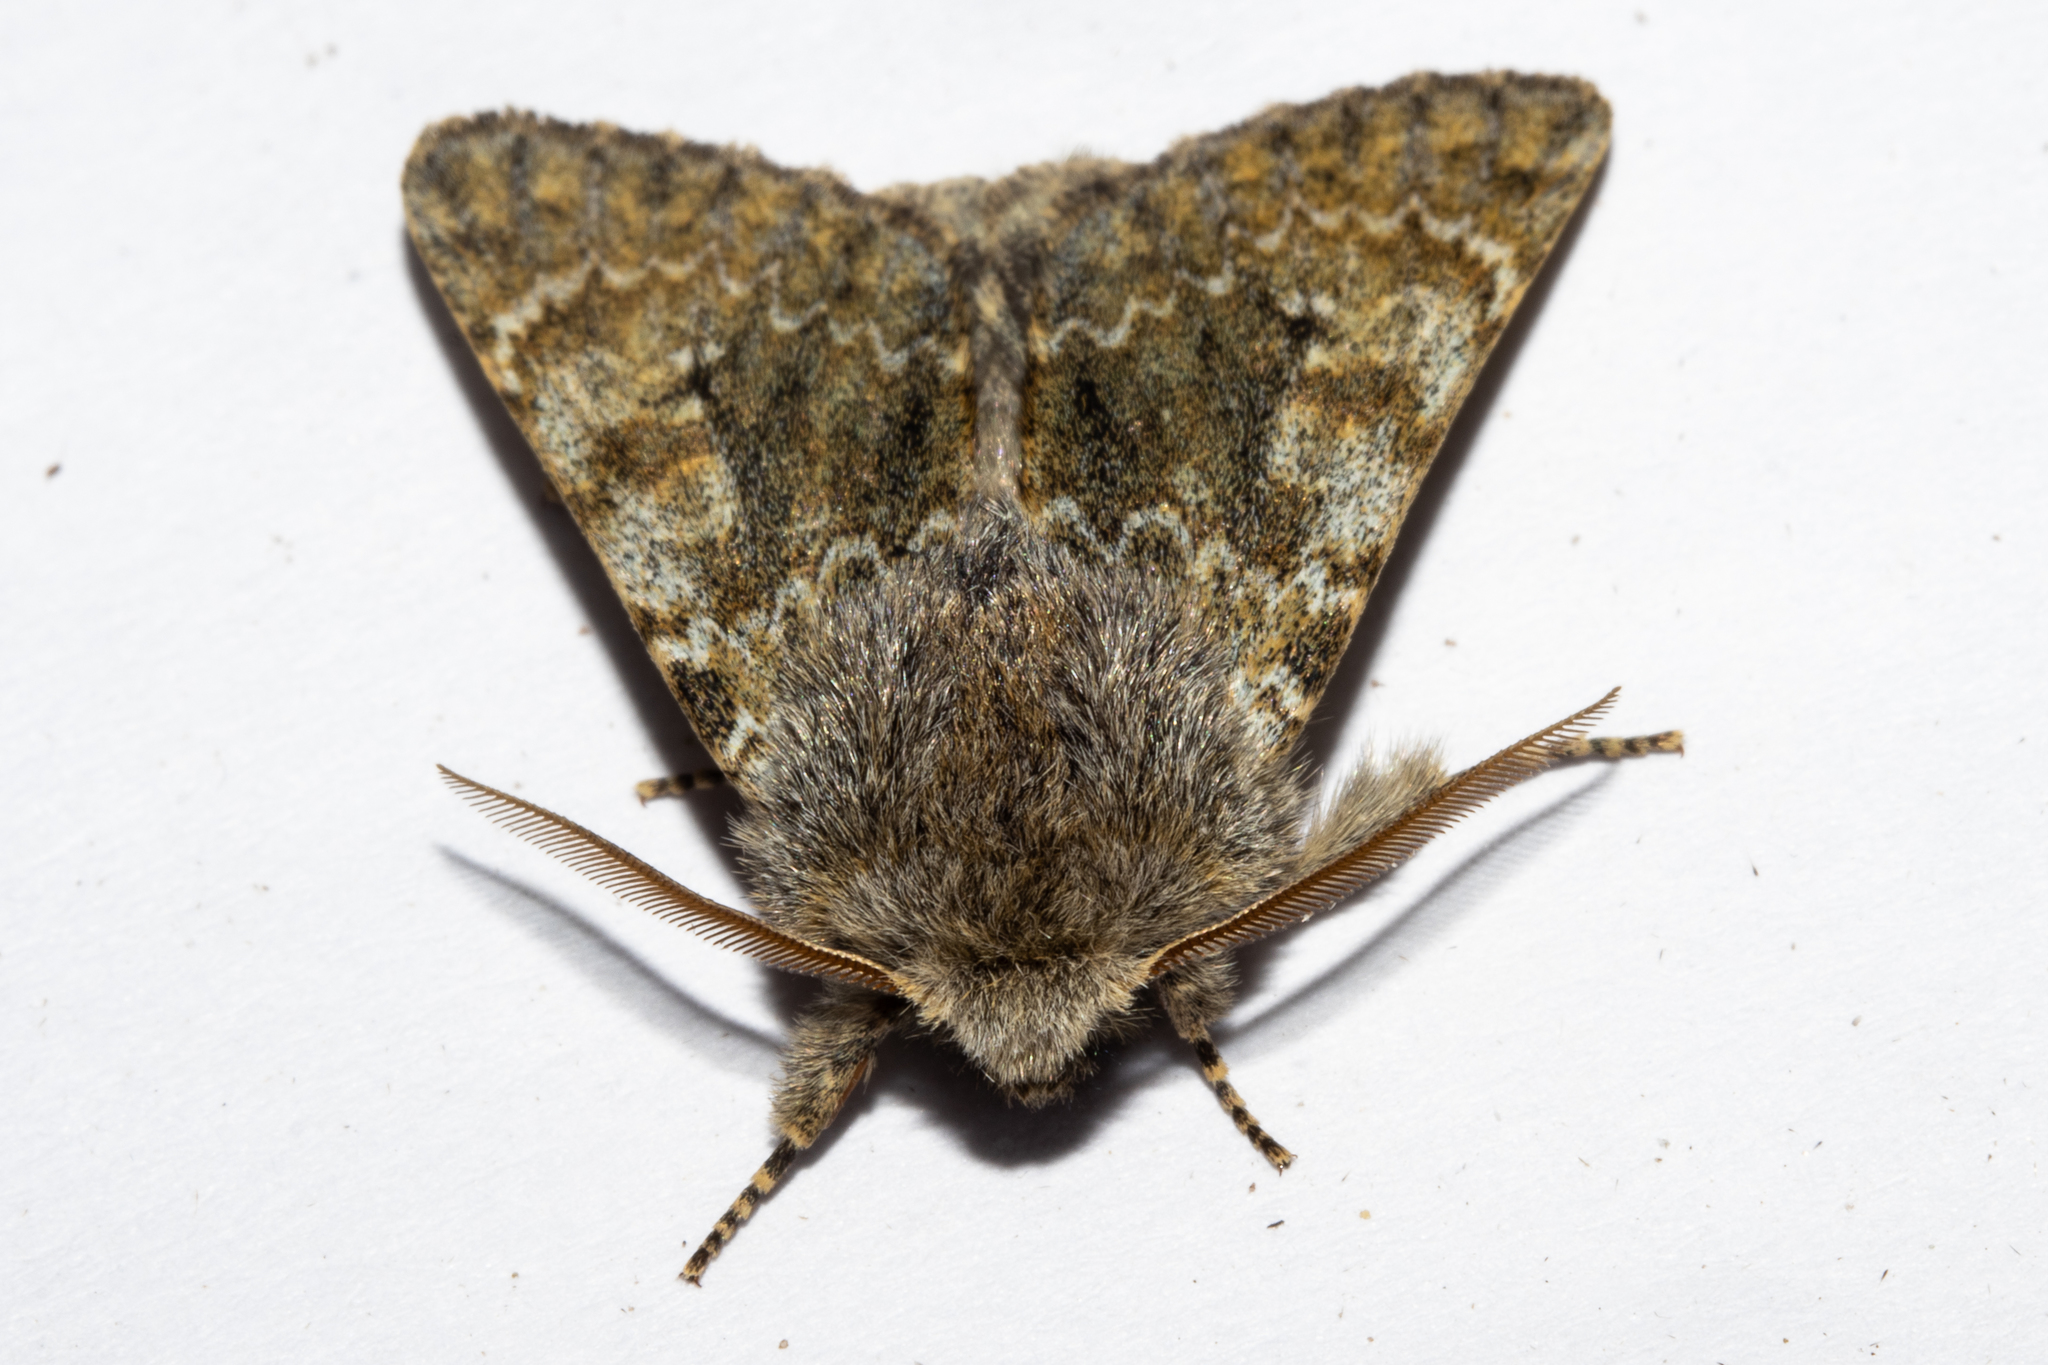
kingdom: Animalia
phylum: Arthropoda
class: Insecta
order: Lepidoptera
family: Noctuidae
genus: Ichneutica
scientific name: Ichneutica cana
